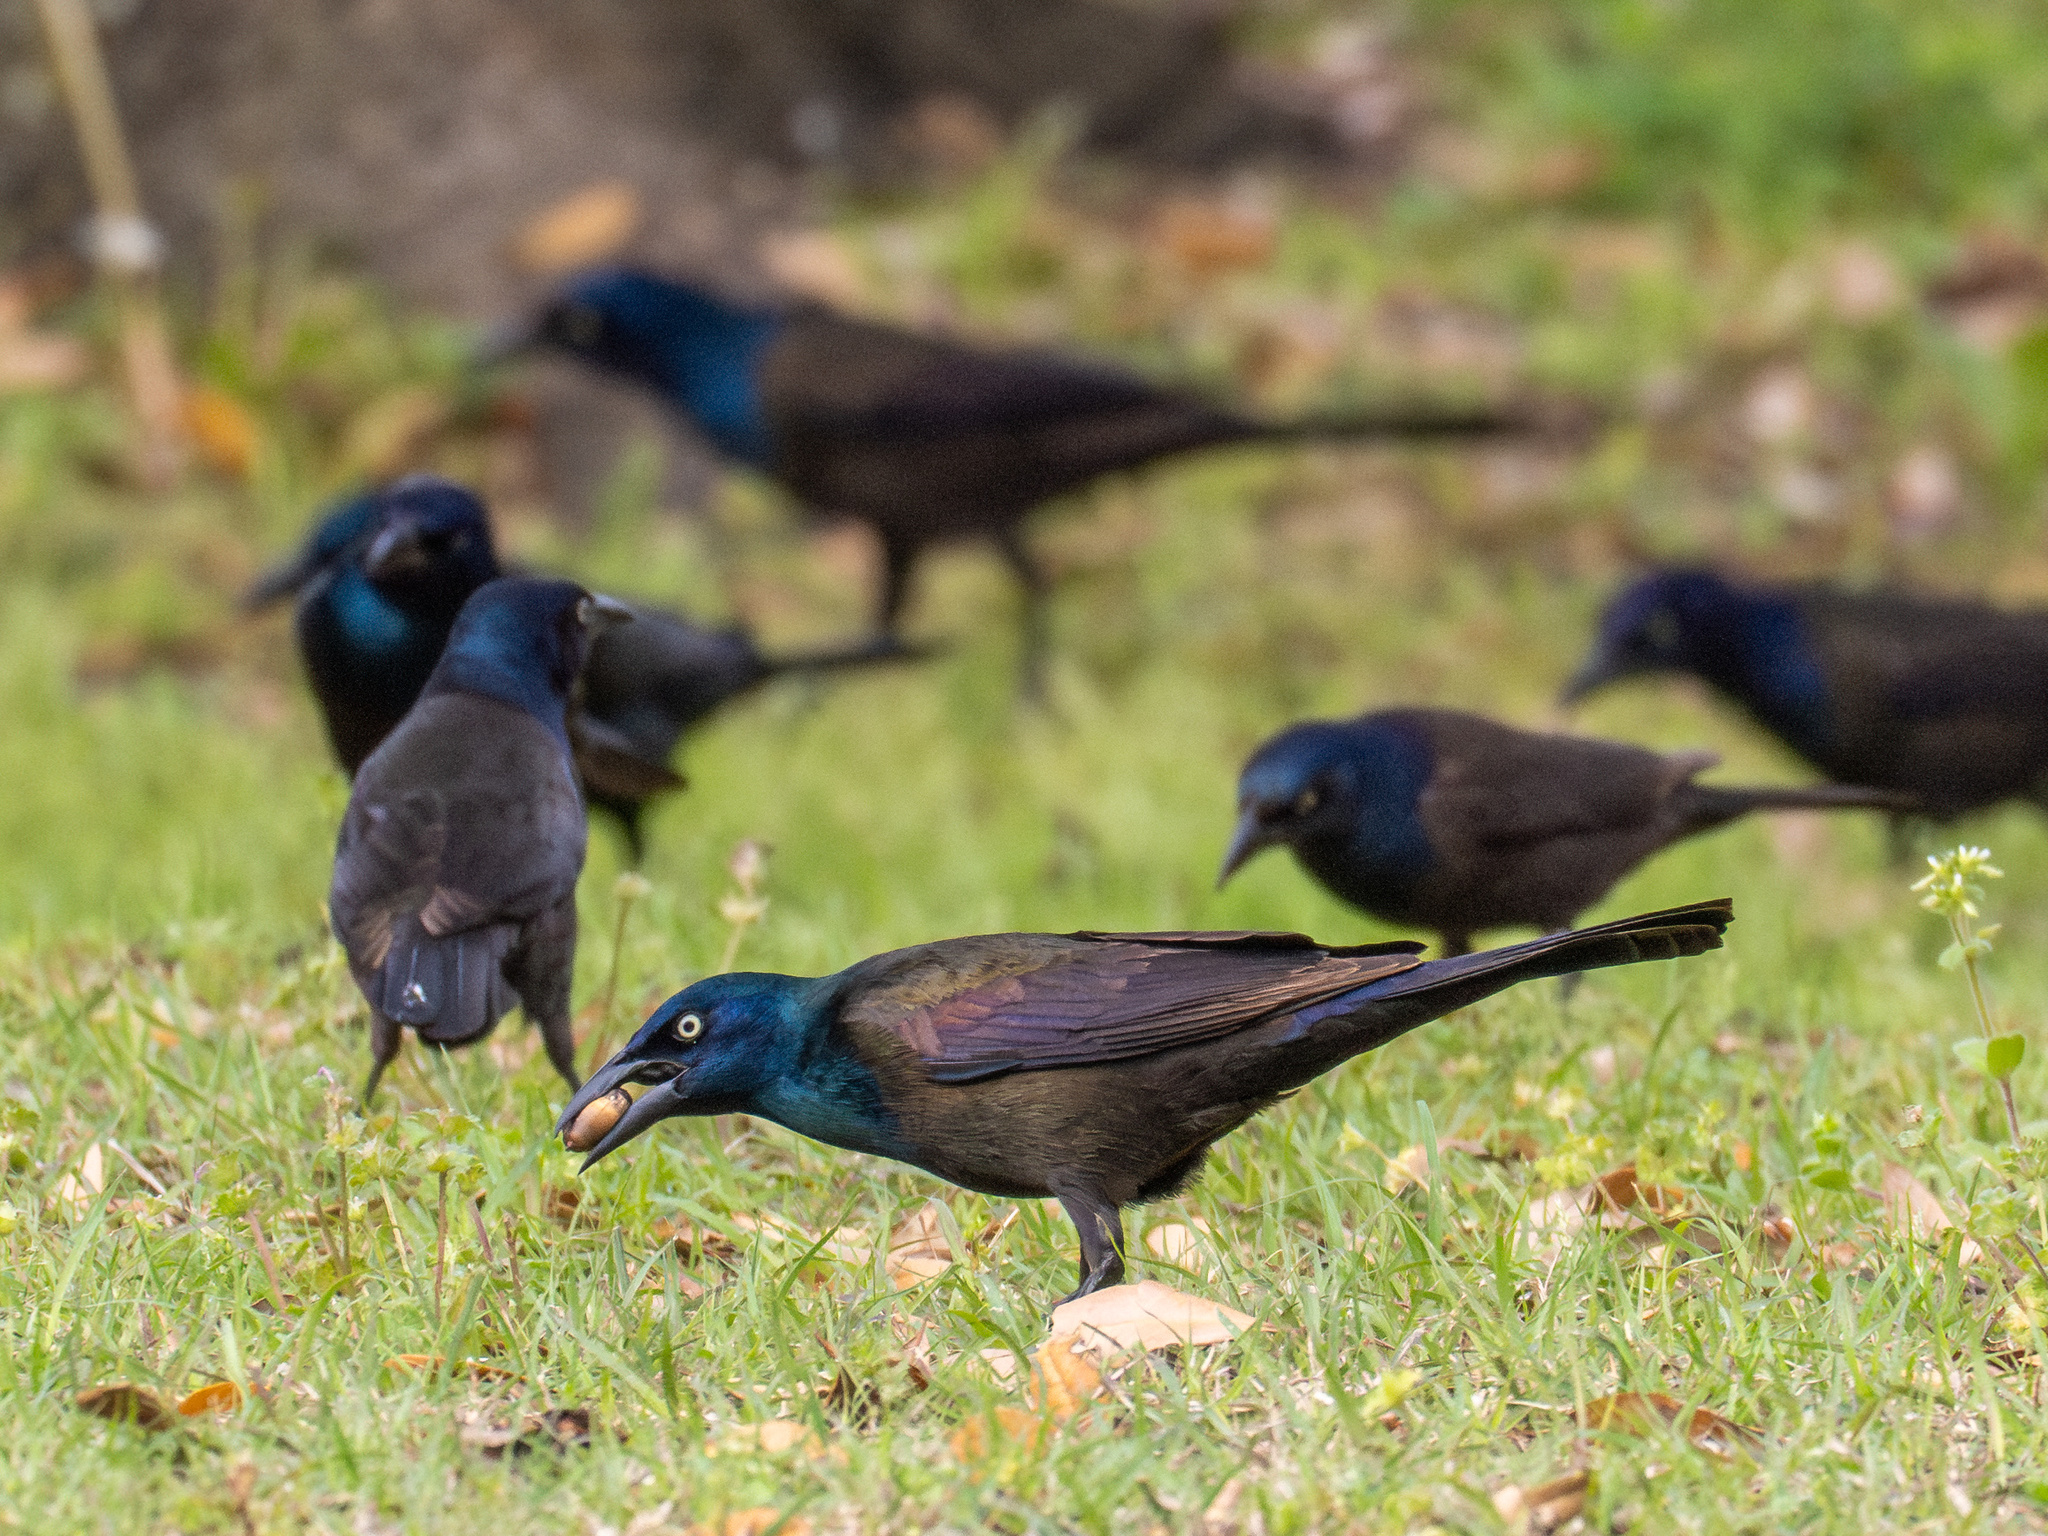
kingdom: Animalia
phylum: Chordata
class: Aves
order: Passeriformes
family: Icteridae
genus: Quiscalus
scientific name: Quiscalus quiscula
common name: Common grackle
